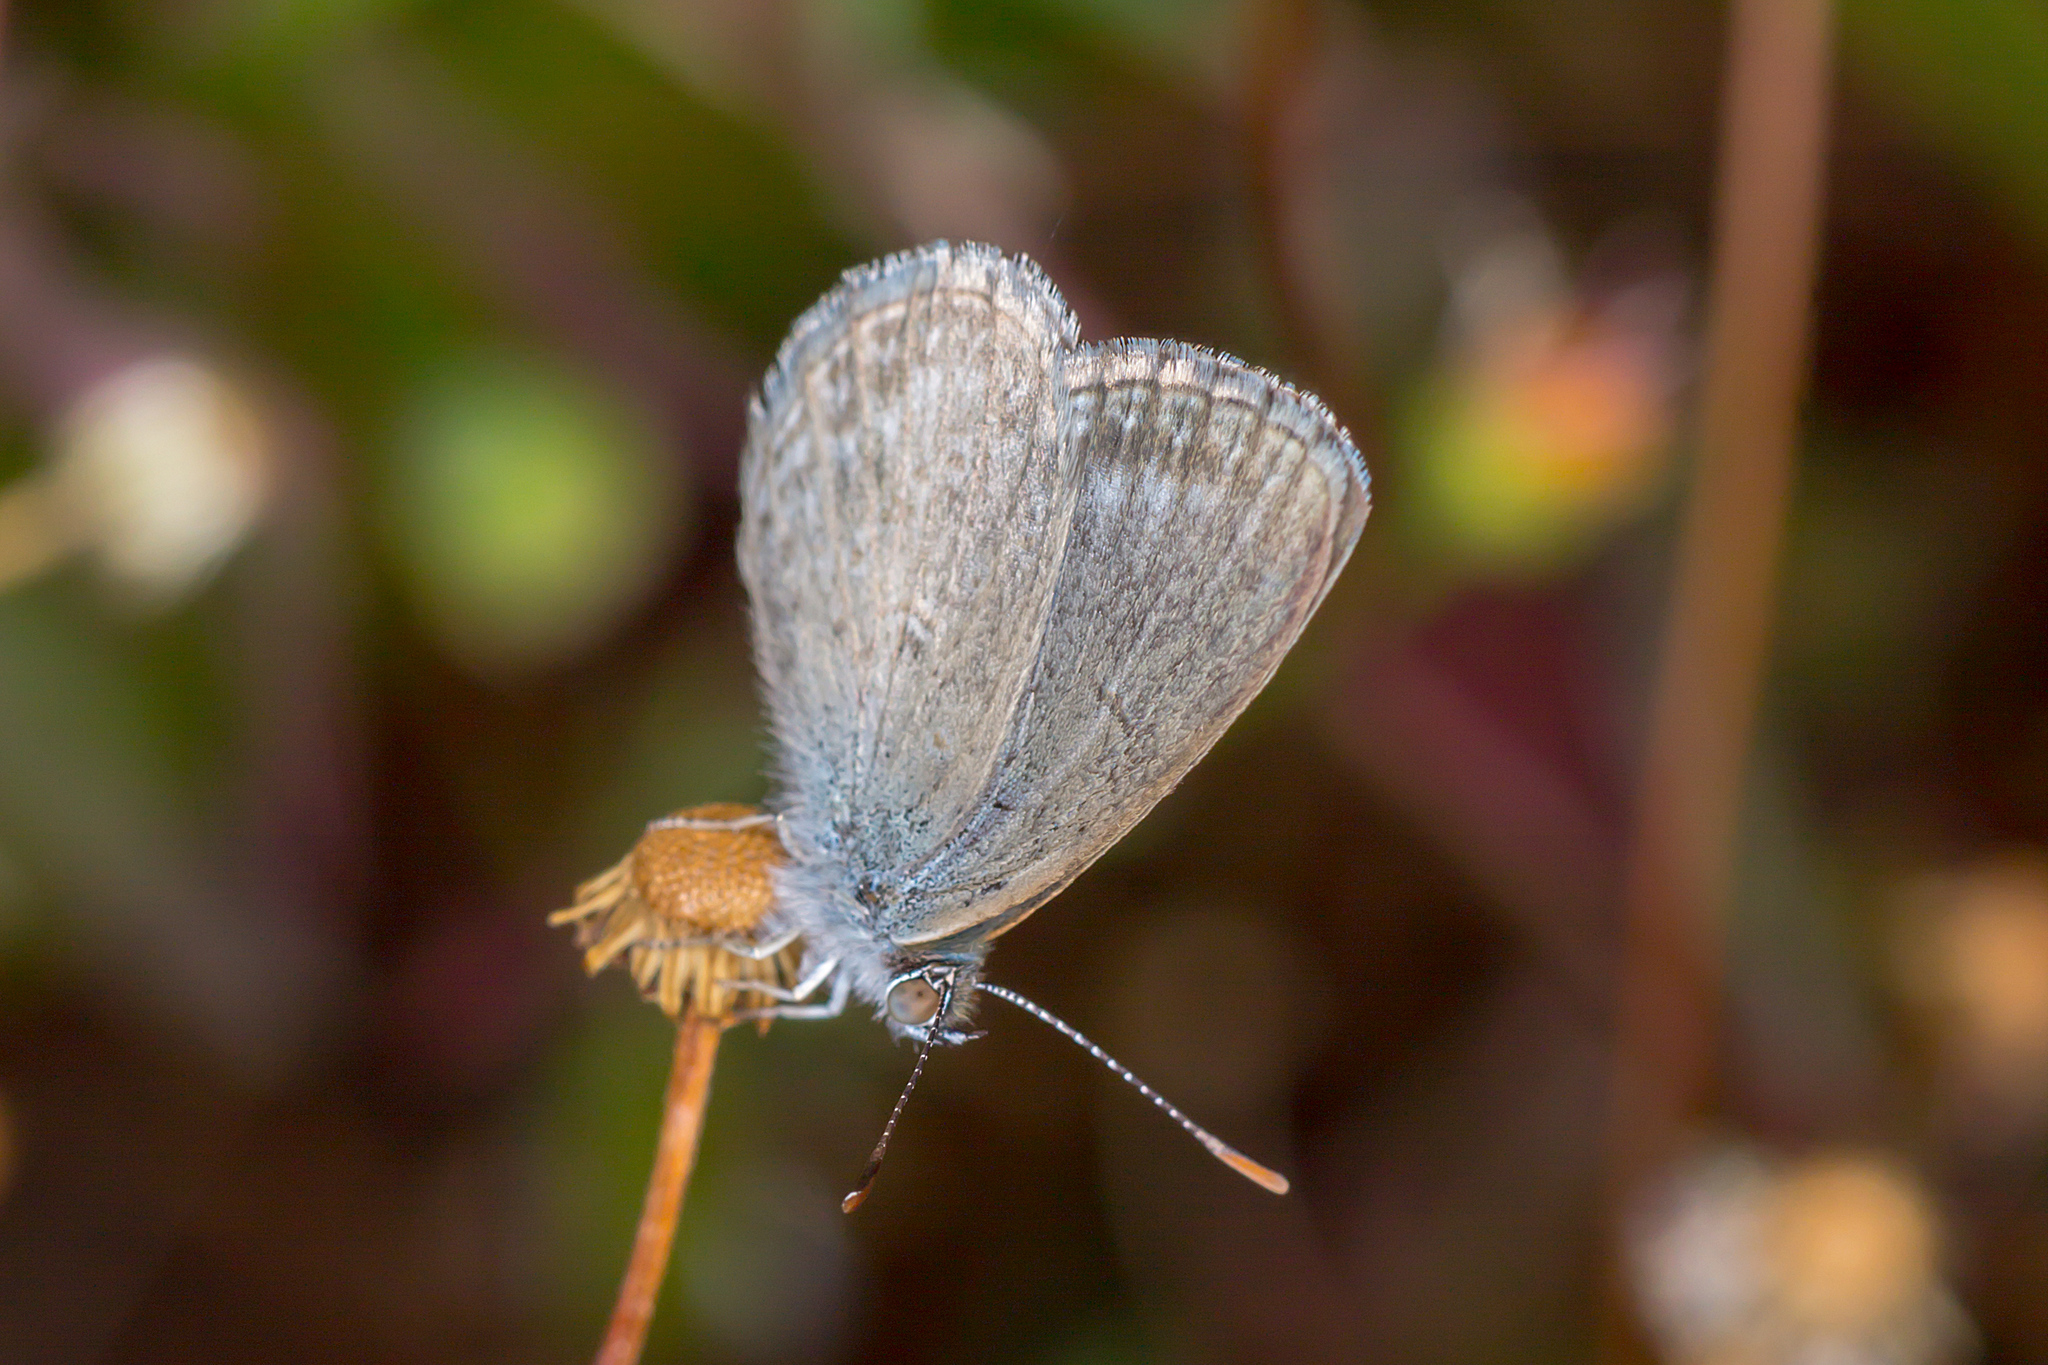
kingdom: Animalia
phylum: Arthropoda
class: Insecta
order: Lepidoptera
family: Lycaenidae
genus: Zizina
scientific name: Zizina labradus
